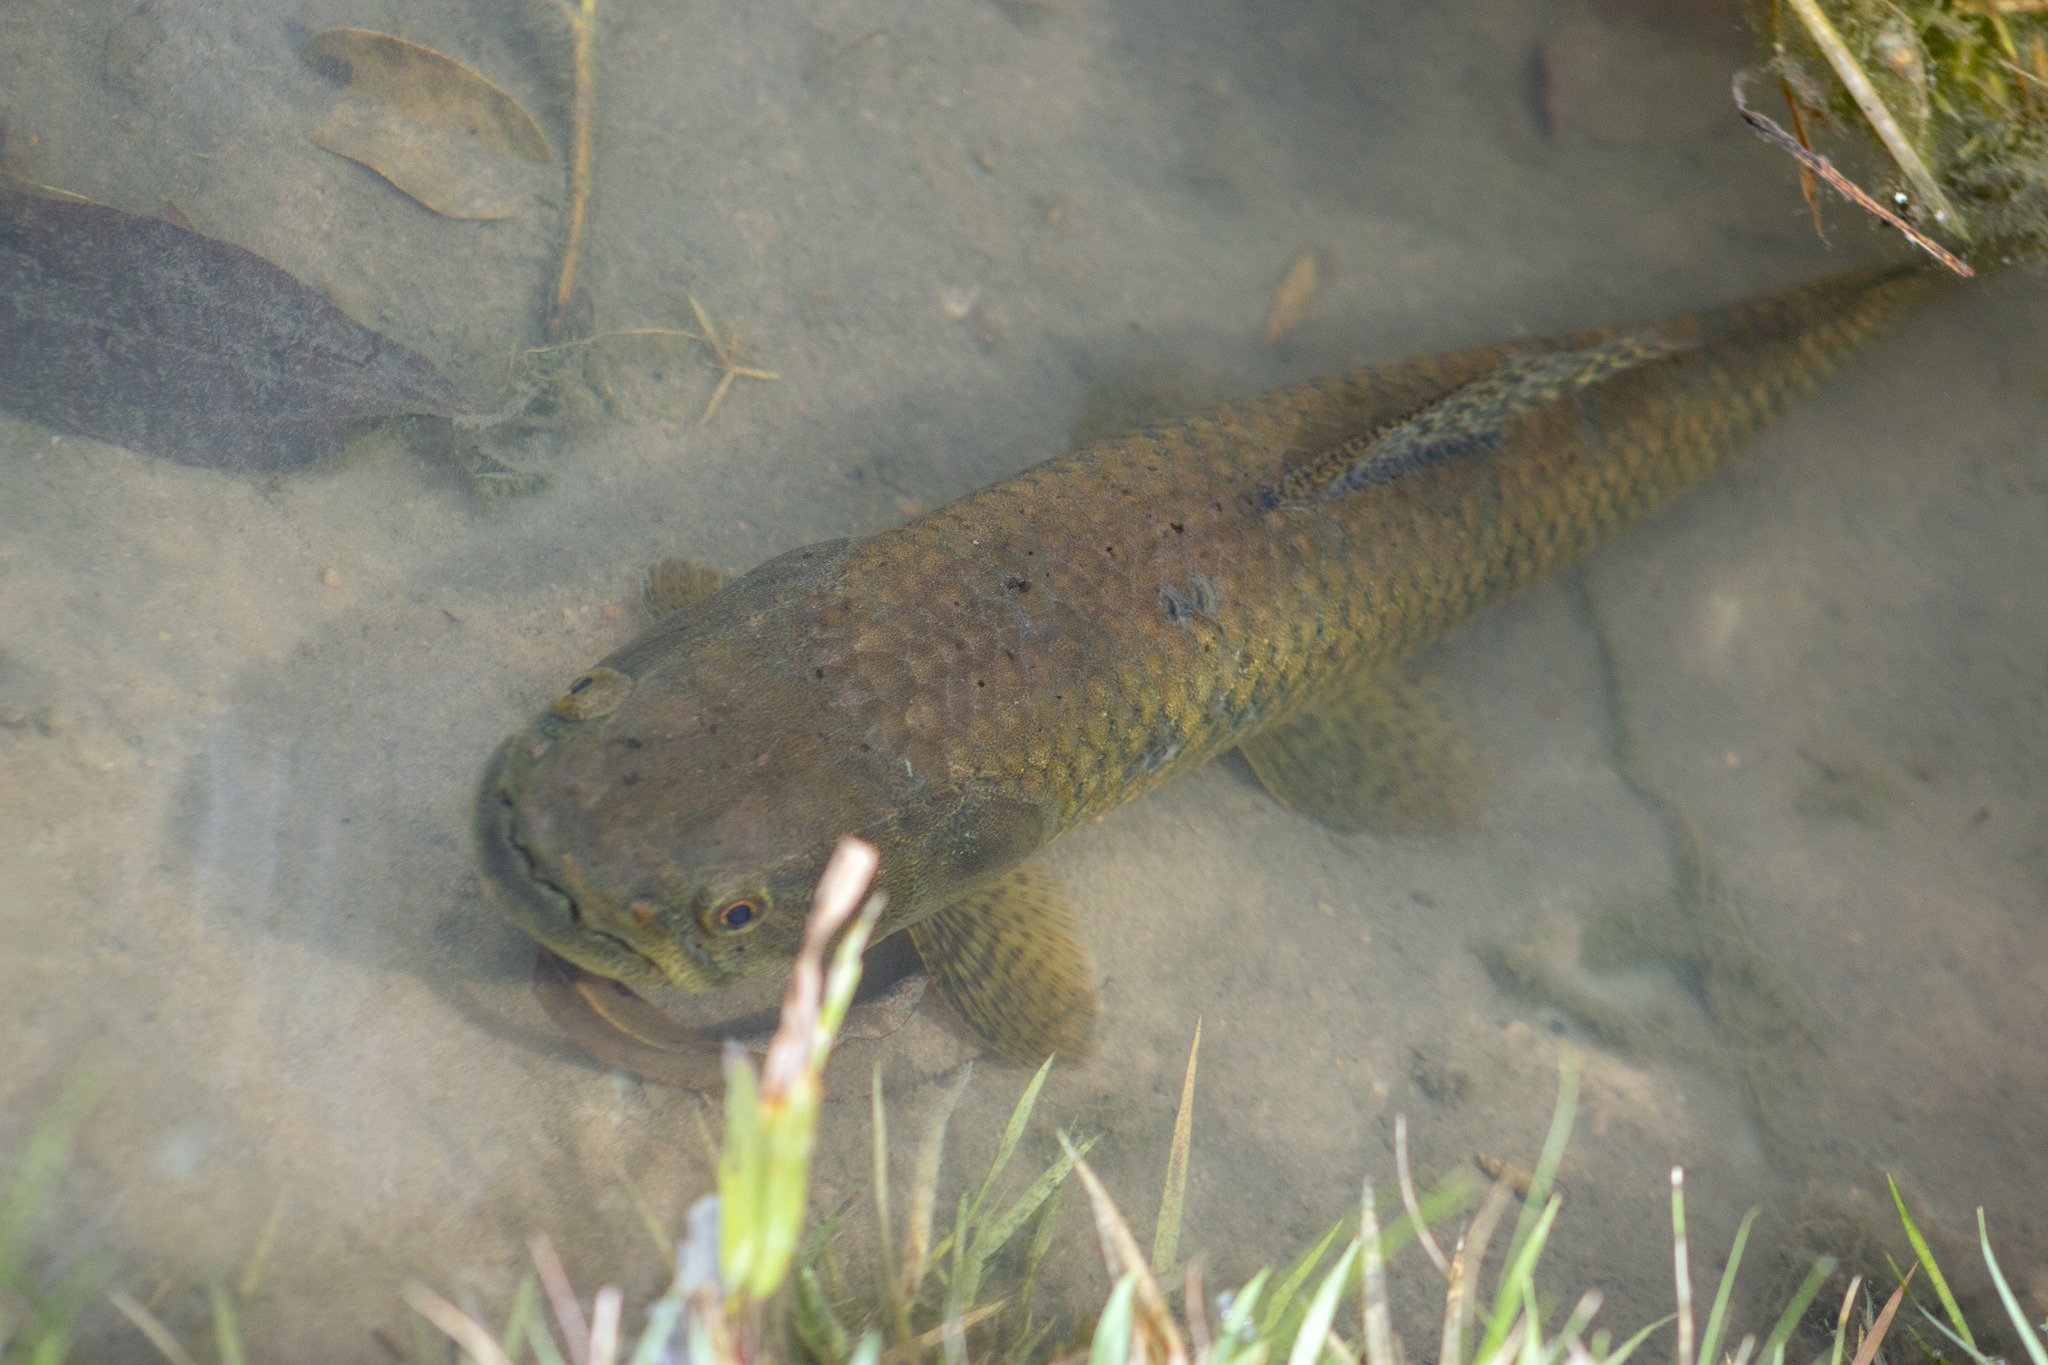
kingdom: Animalia
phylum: Chordata
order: Characiformes
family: Erythrinidae
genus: Hoplias
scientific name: Hoplias malabaricus
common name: Trahira
